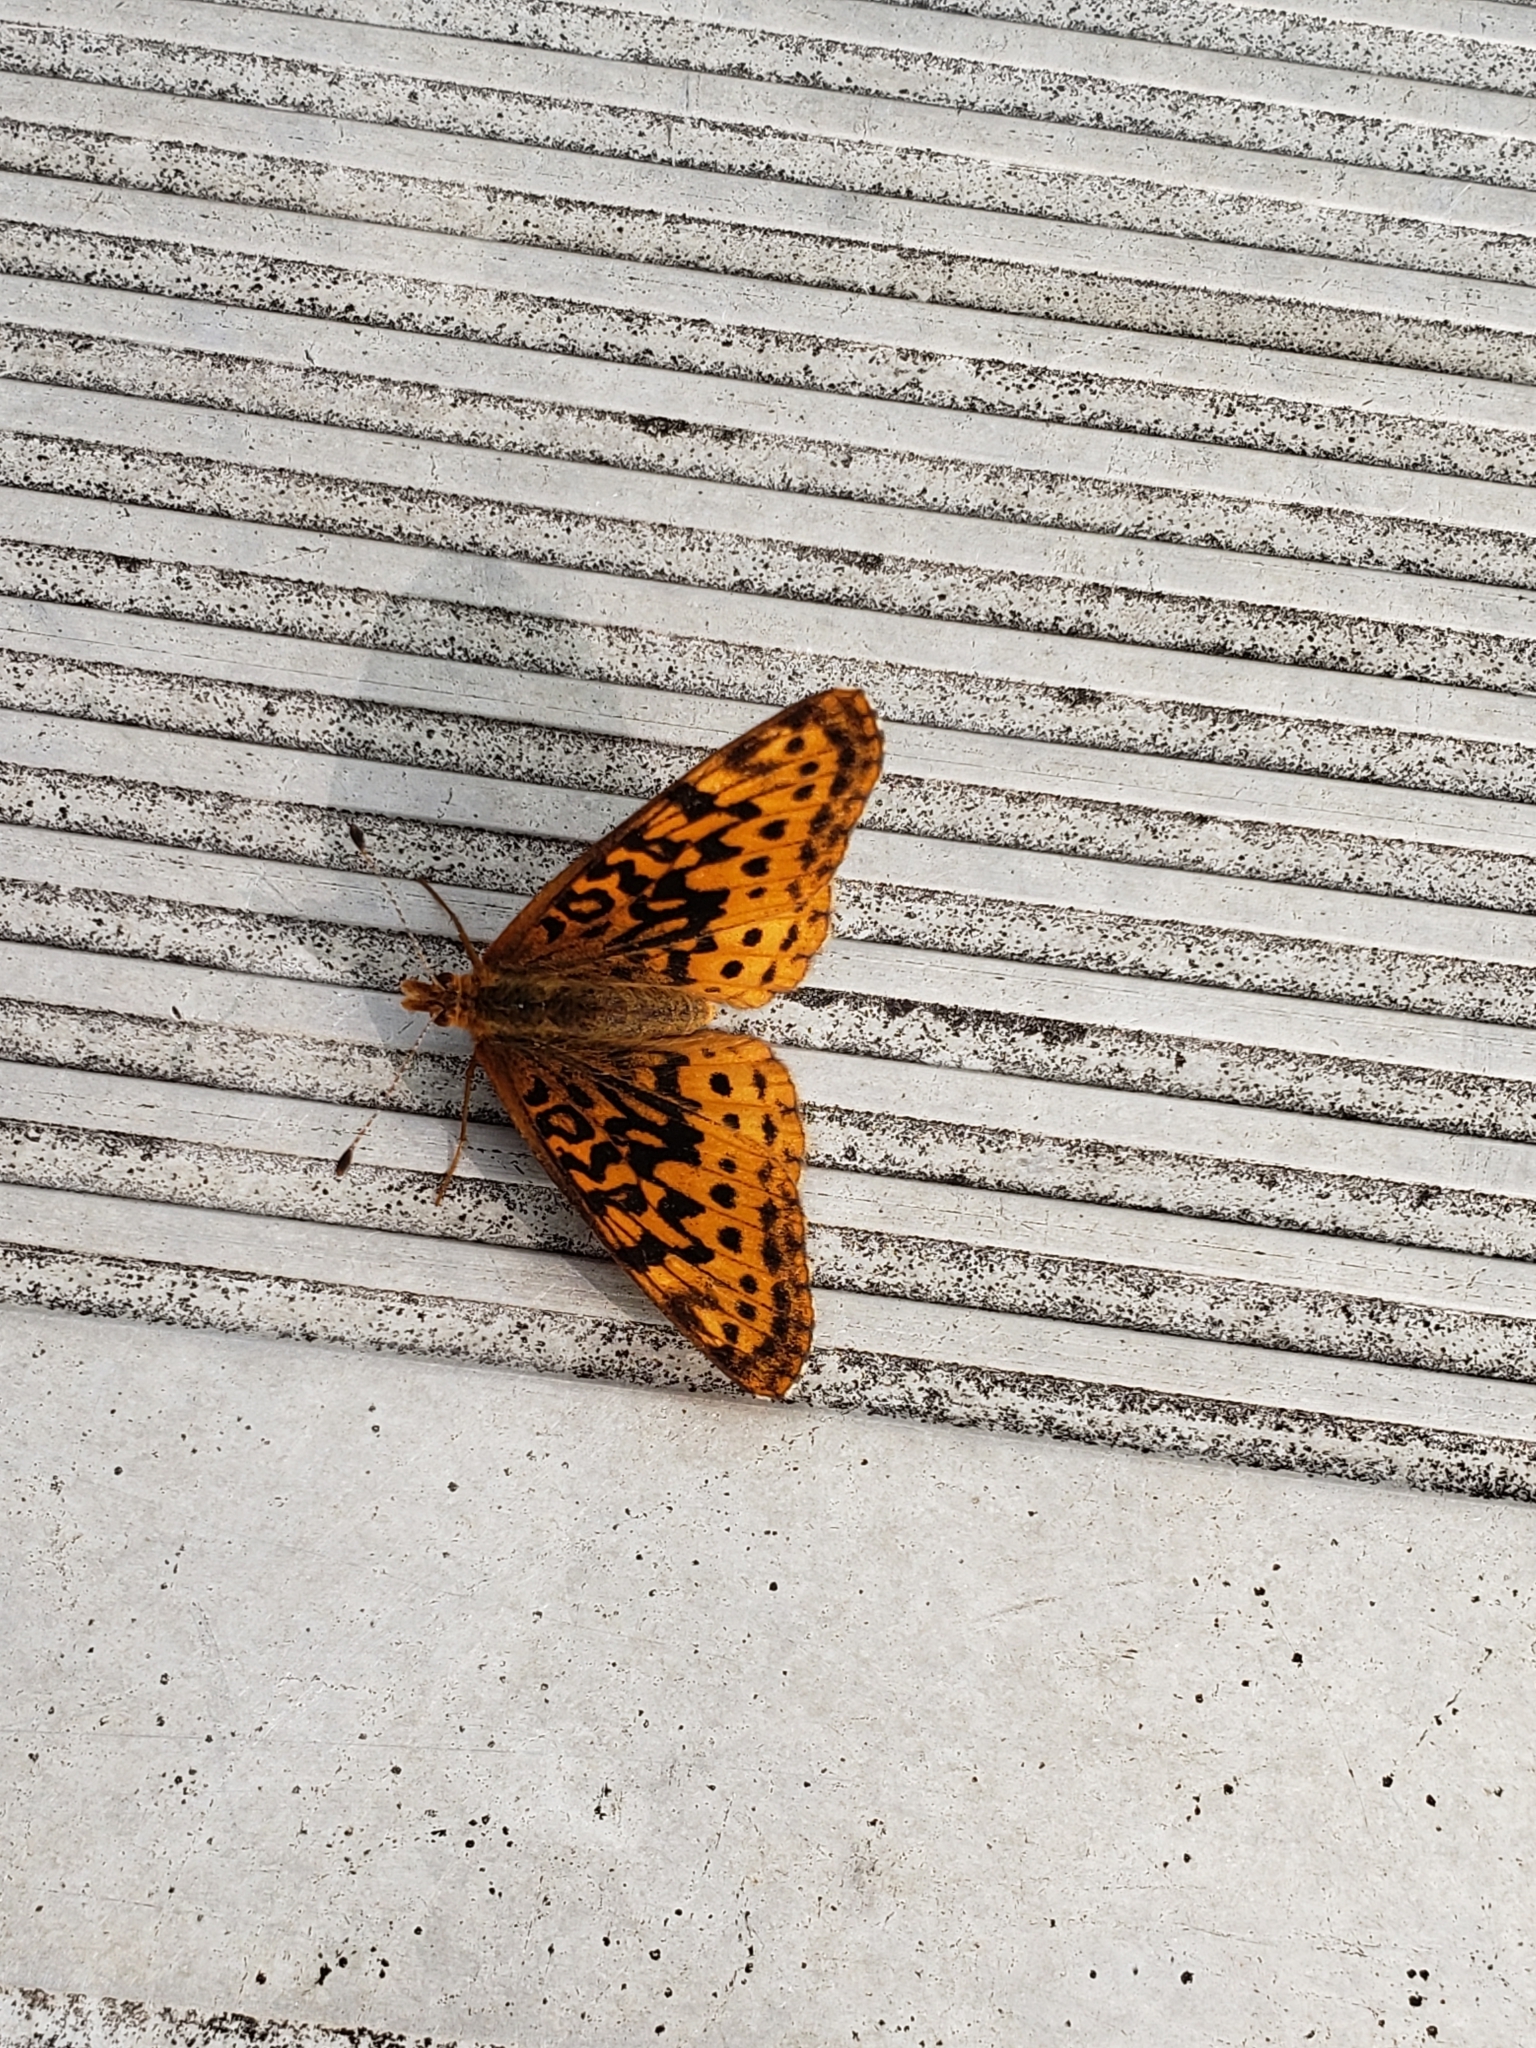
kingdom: Animalia
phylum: Arthropoda
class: Insecta
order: Lepidoptera
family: Nymphalidae
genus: Clossiana
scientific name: Clossiana toddi
